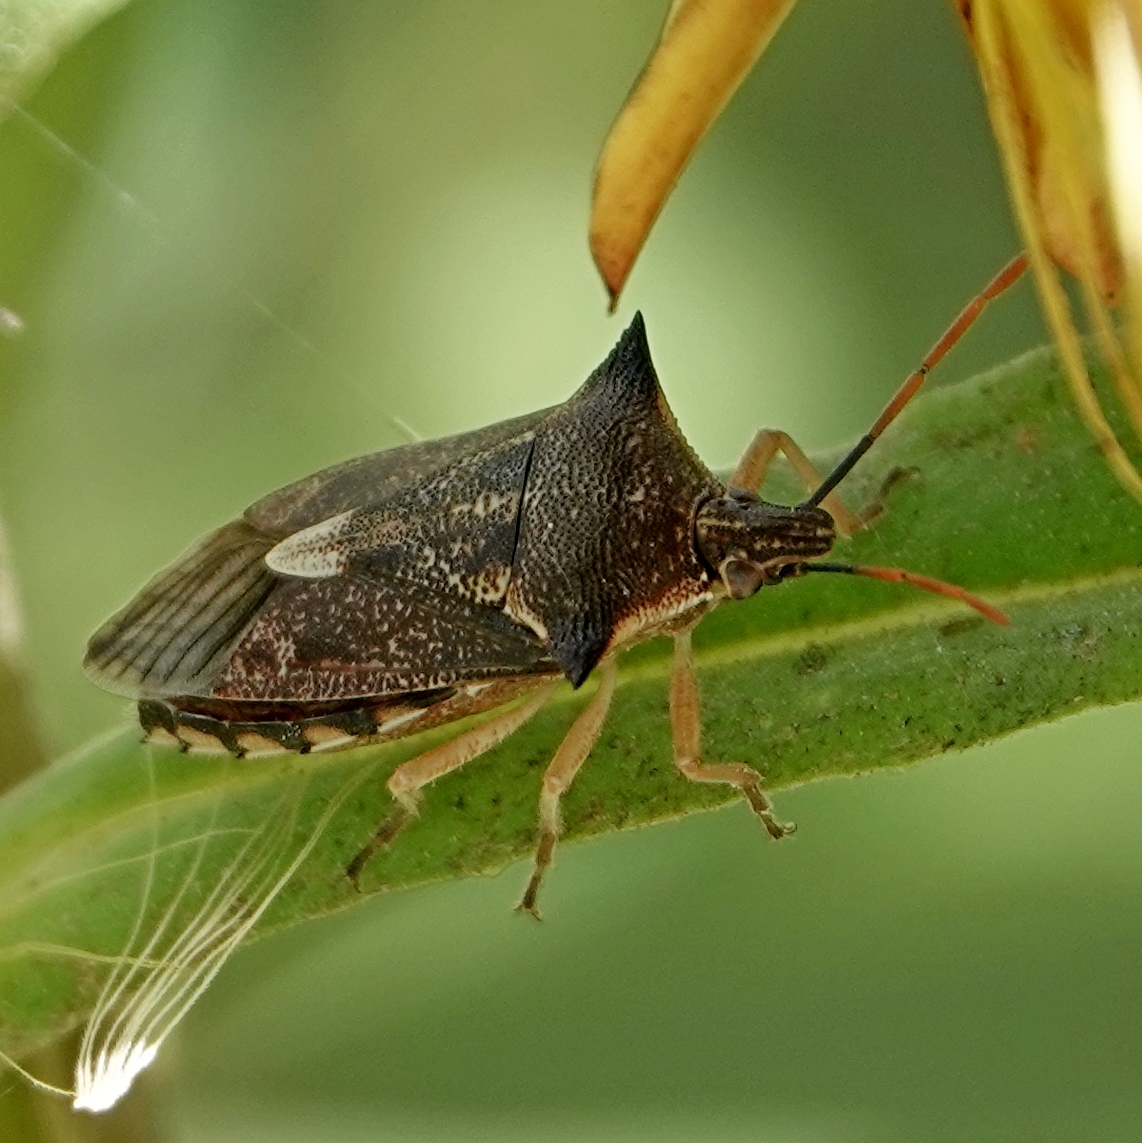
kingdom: Animalia
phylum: Arthropoda
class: Insecta
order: Hemiptera
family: Pentatomidae
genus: Oechalia
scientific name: Oechalia schellenbergii
